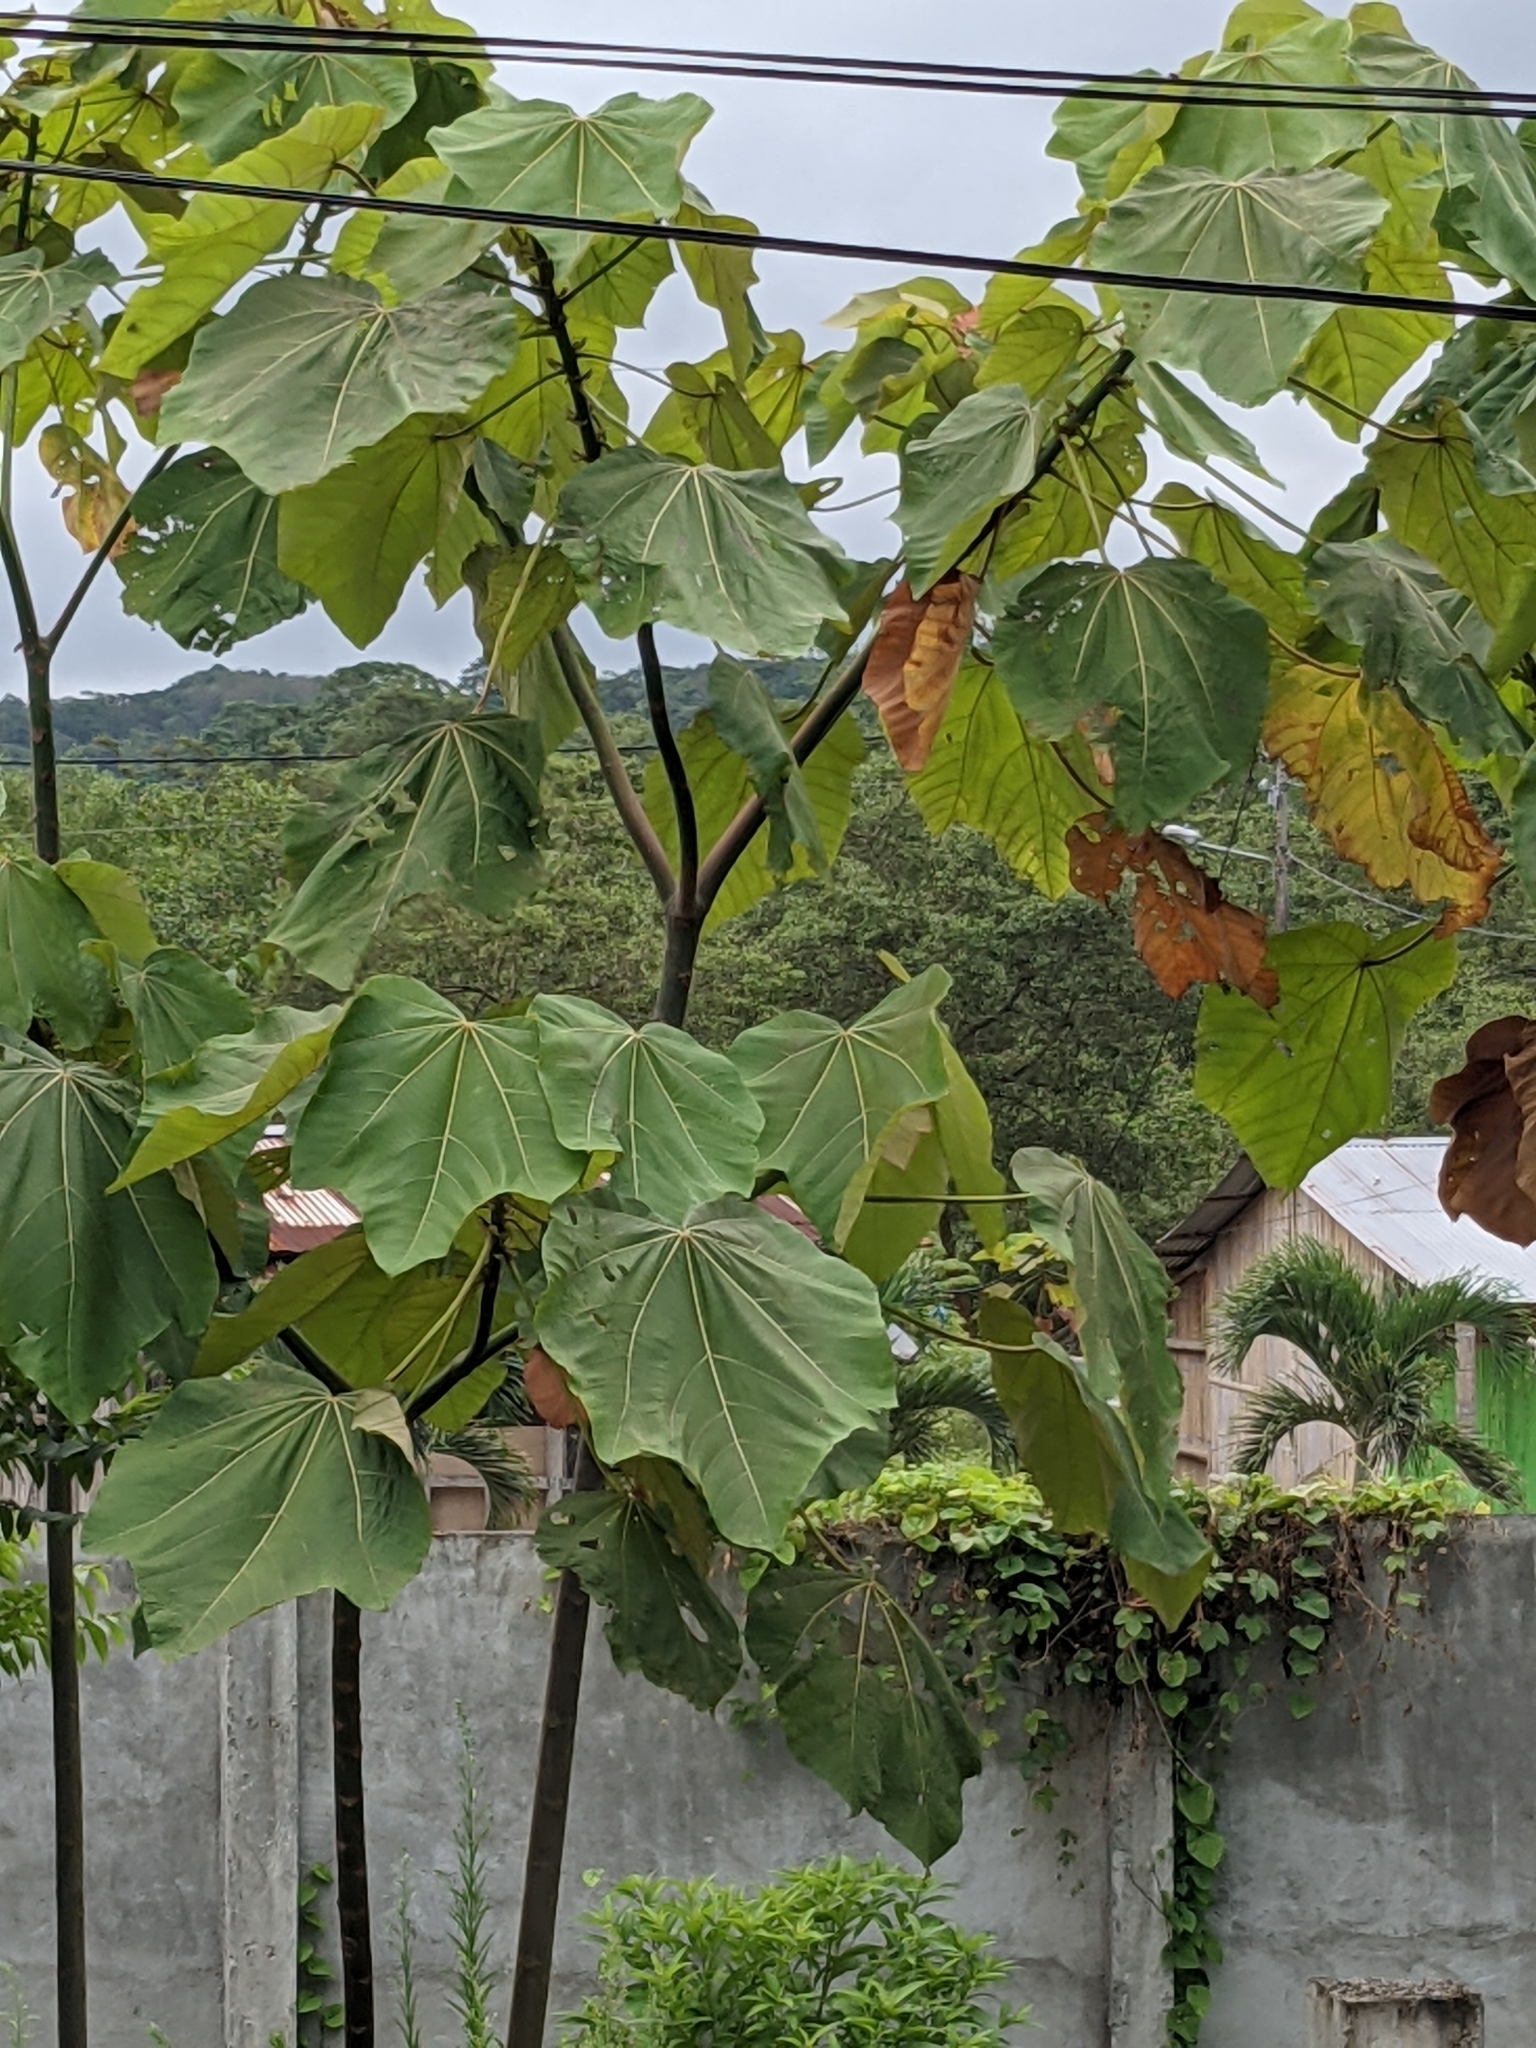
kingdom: Plantae
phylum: Tracheophyta
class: Magnoliopsida
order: Malvales
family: Malvaceae
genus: Ochroma
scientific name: Ochroma pyramidale
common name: Balsa
